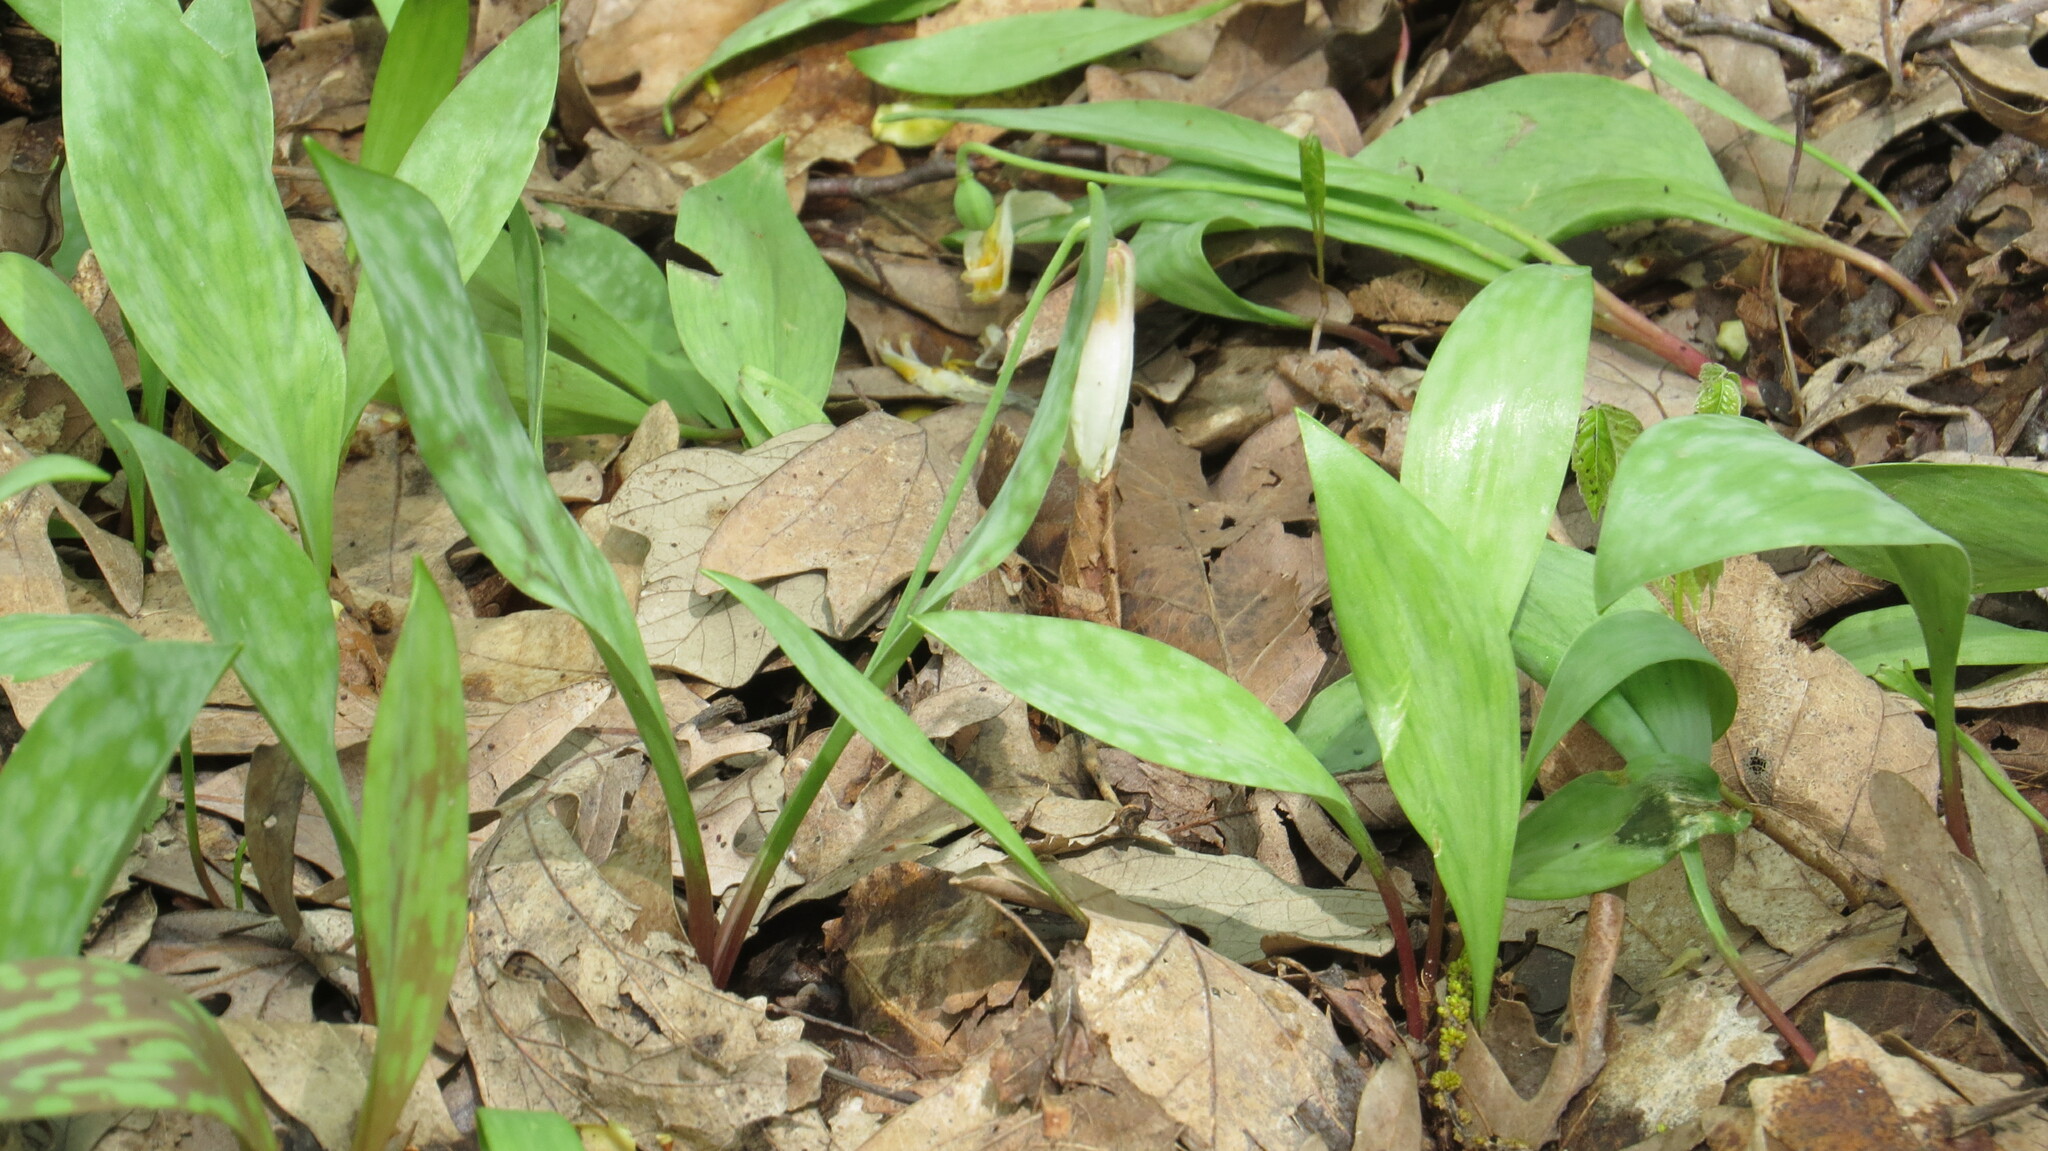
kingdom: Plantae
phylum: Tracheophyta
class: Liliopsida
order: Liliales
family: Liliaceae
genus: Erythronium
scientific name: Erythronium albidum
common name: White trout-lily
